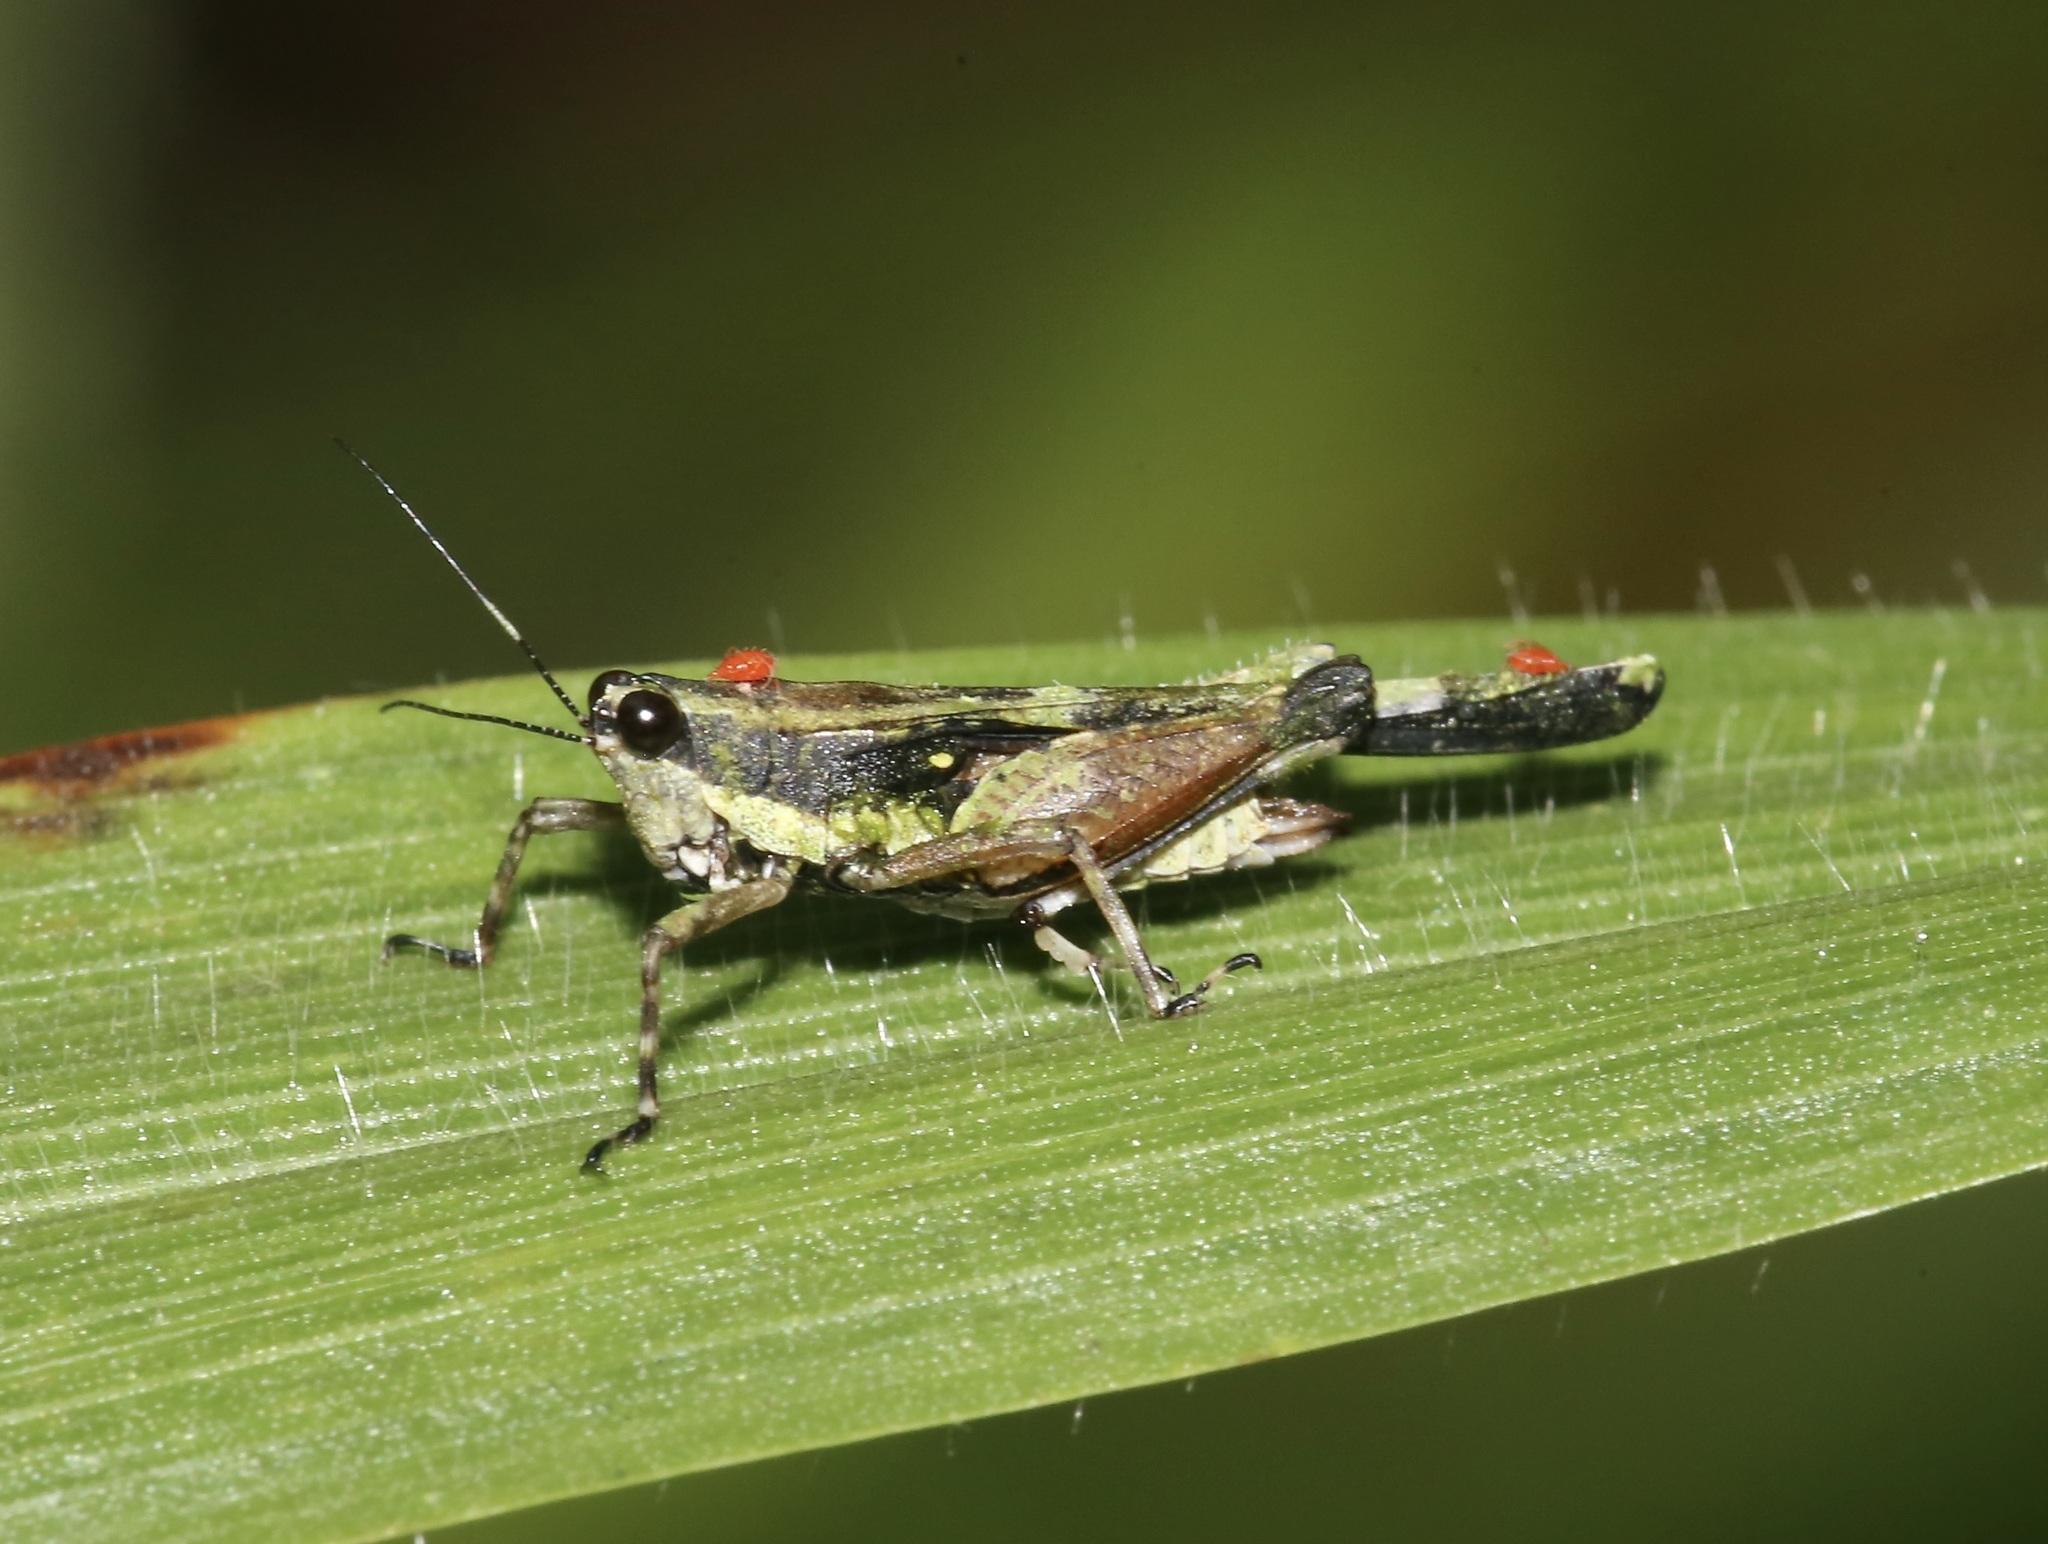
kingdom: Animalia
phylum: Arthropoda
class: Insecta
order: Orthoptera
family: Tetrigidae
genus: Scaria
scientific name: Scaria fasciata
